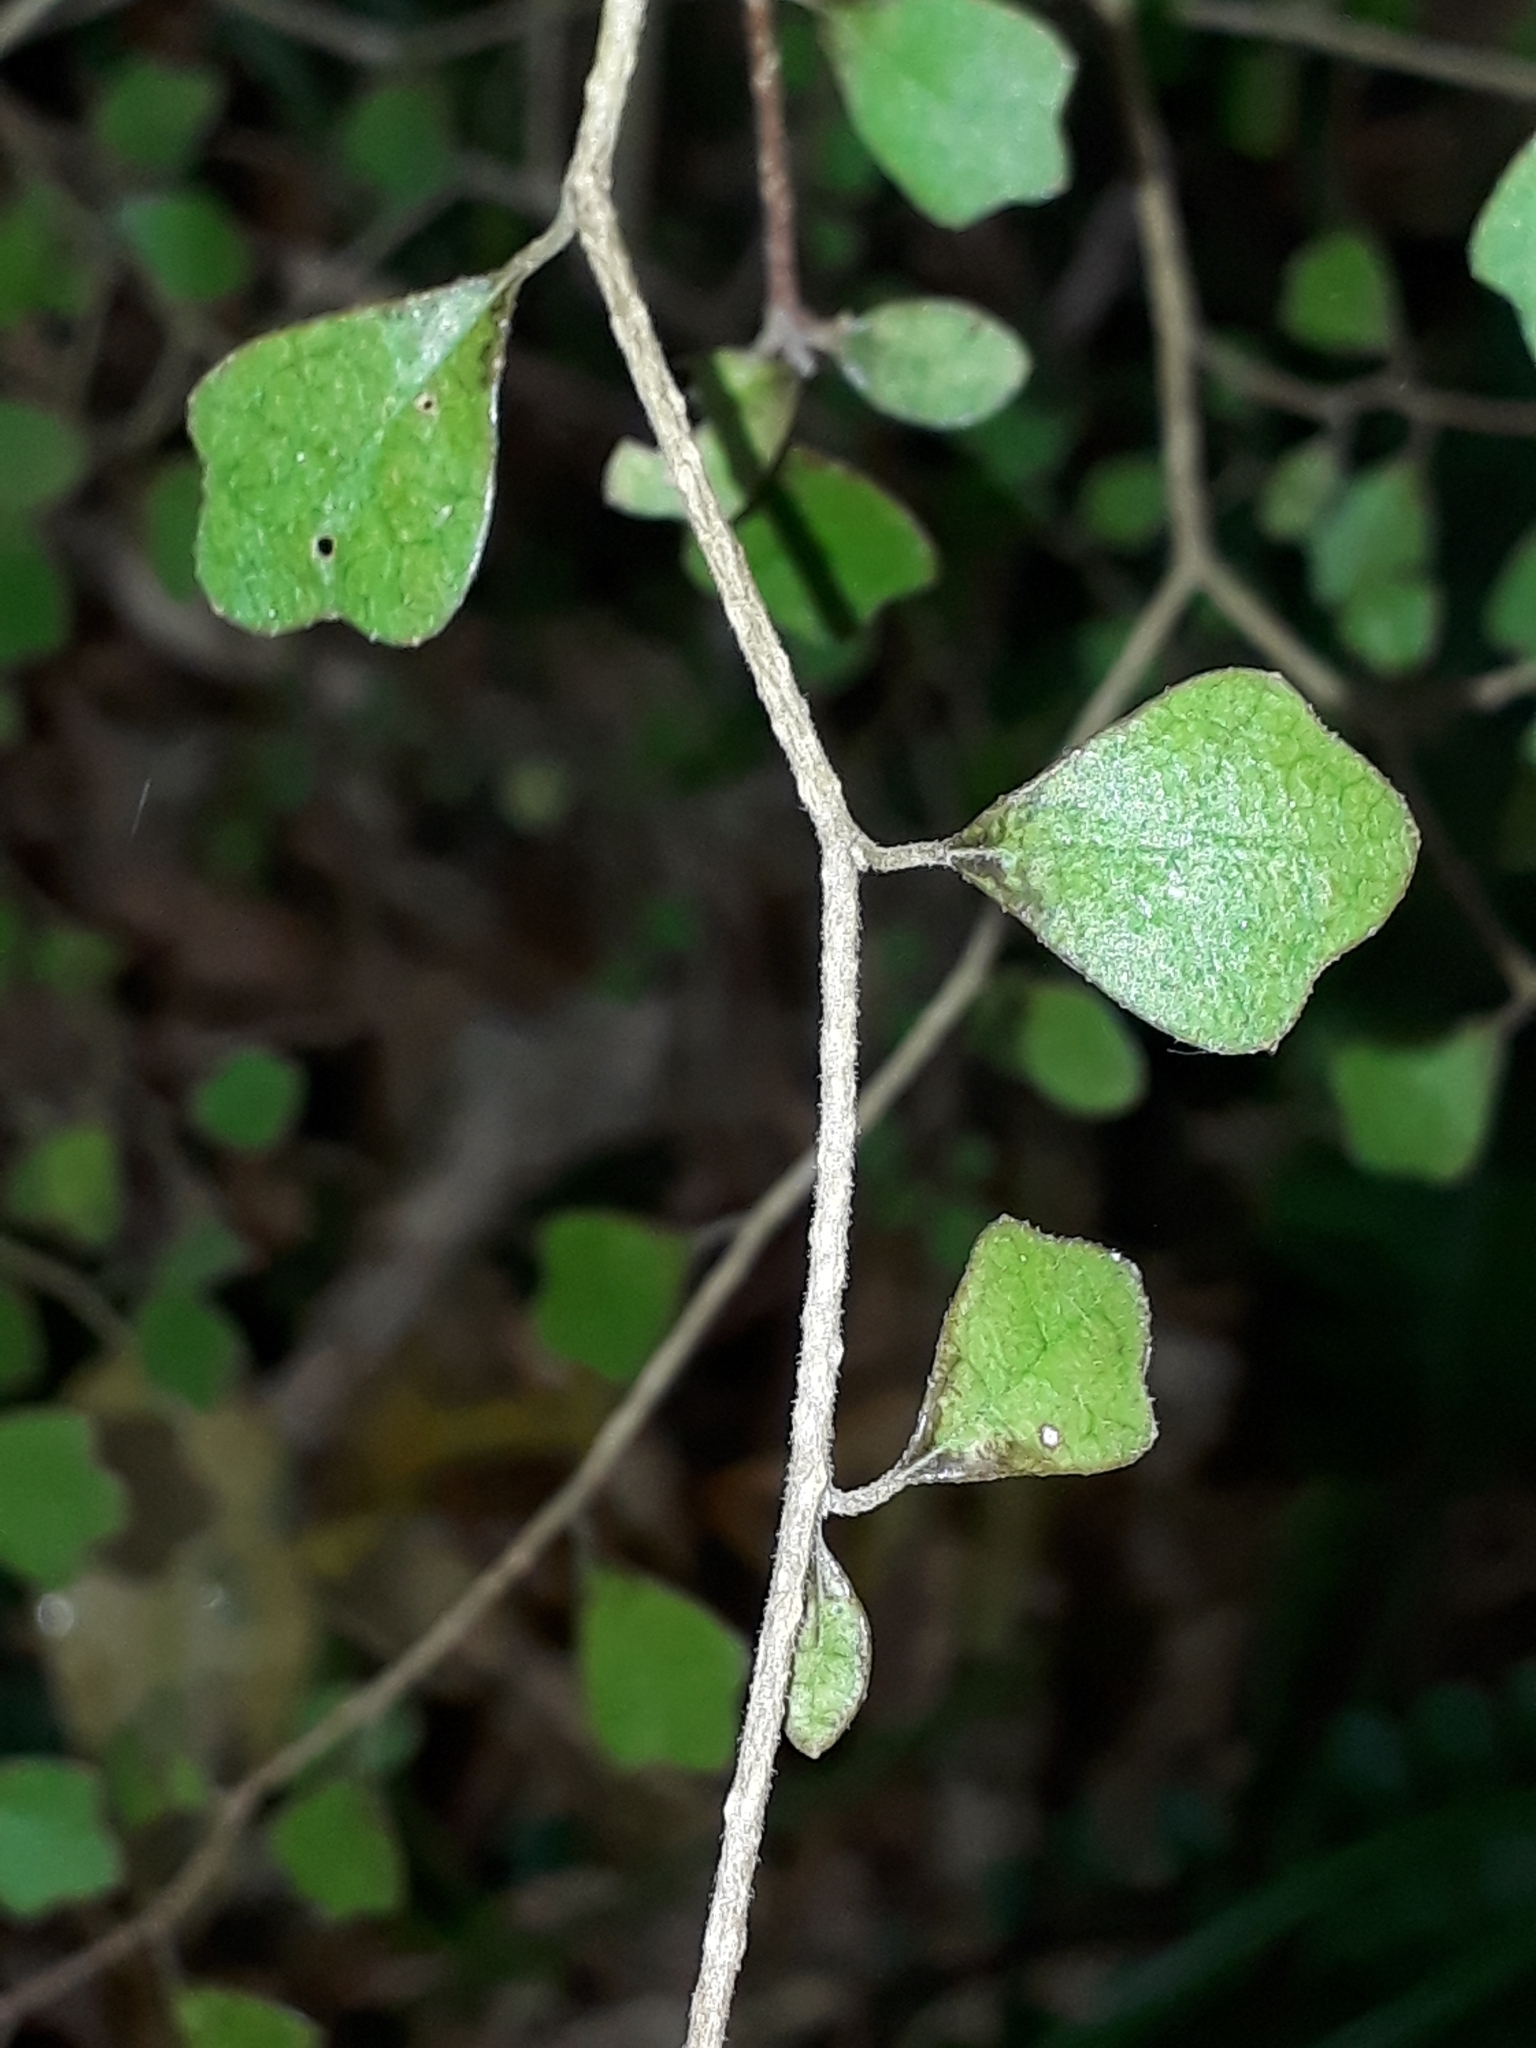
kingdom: Plantae
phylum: Tracheophyta
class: Magnoliopsida
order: Apiales
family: Pennantiaceae
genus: Pennantia
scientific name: Pennantia corymbosa
